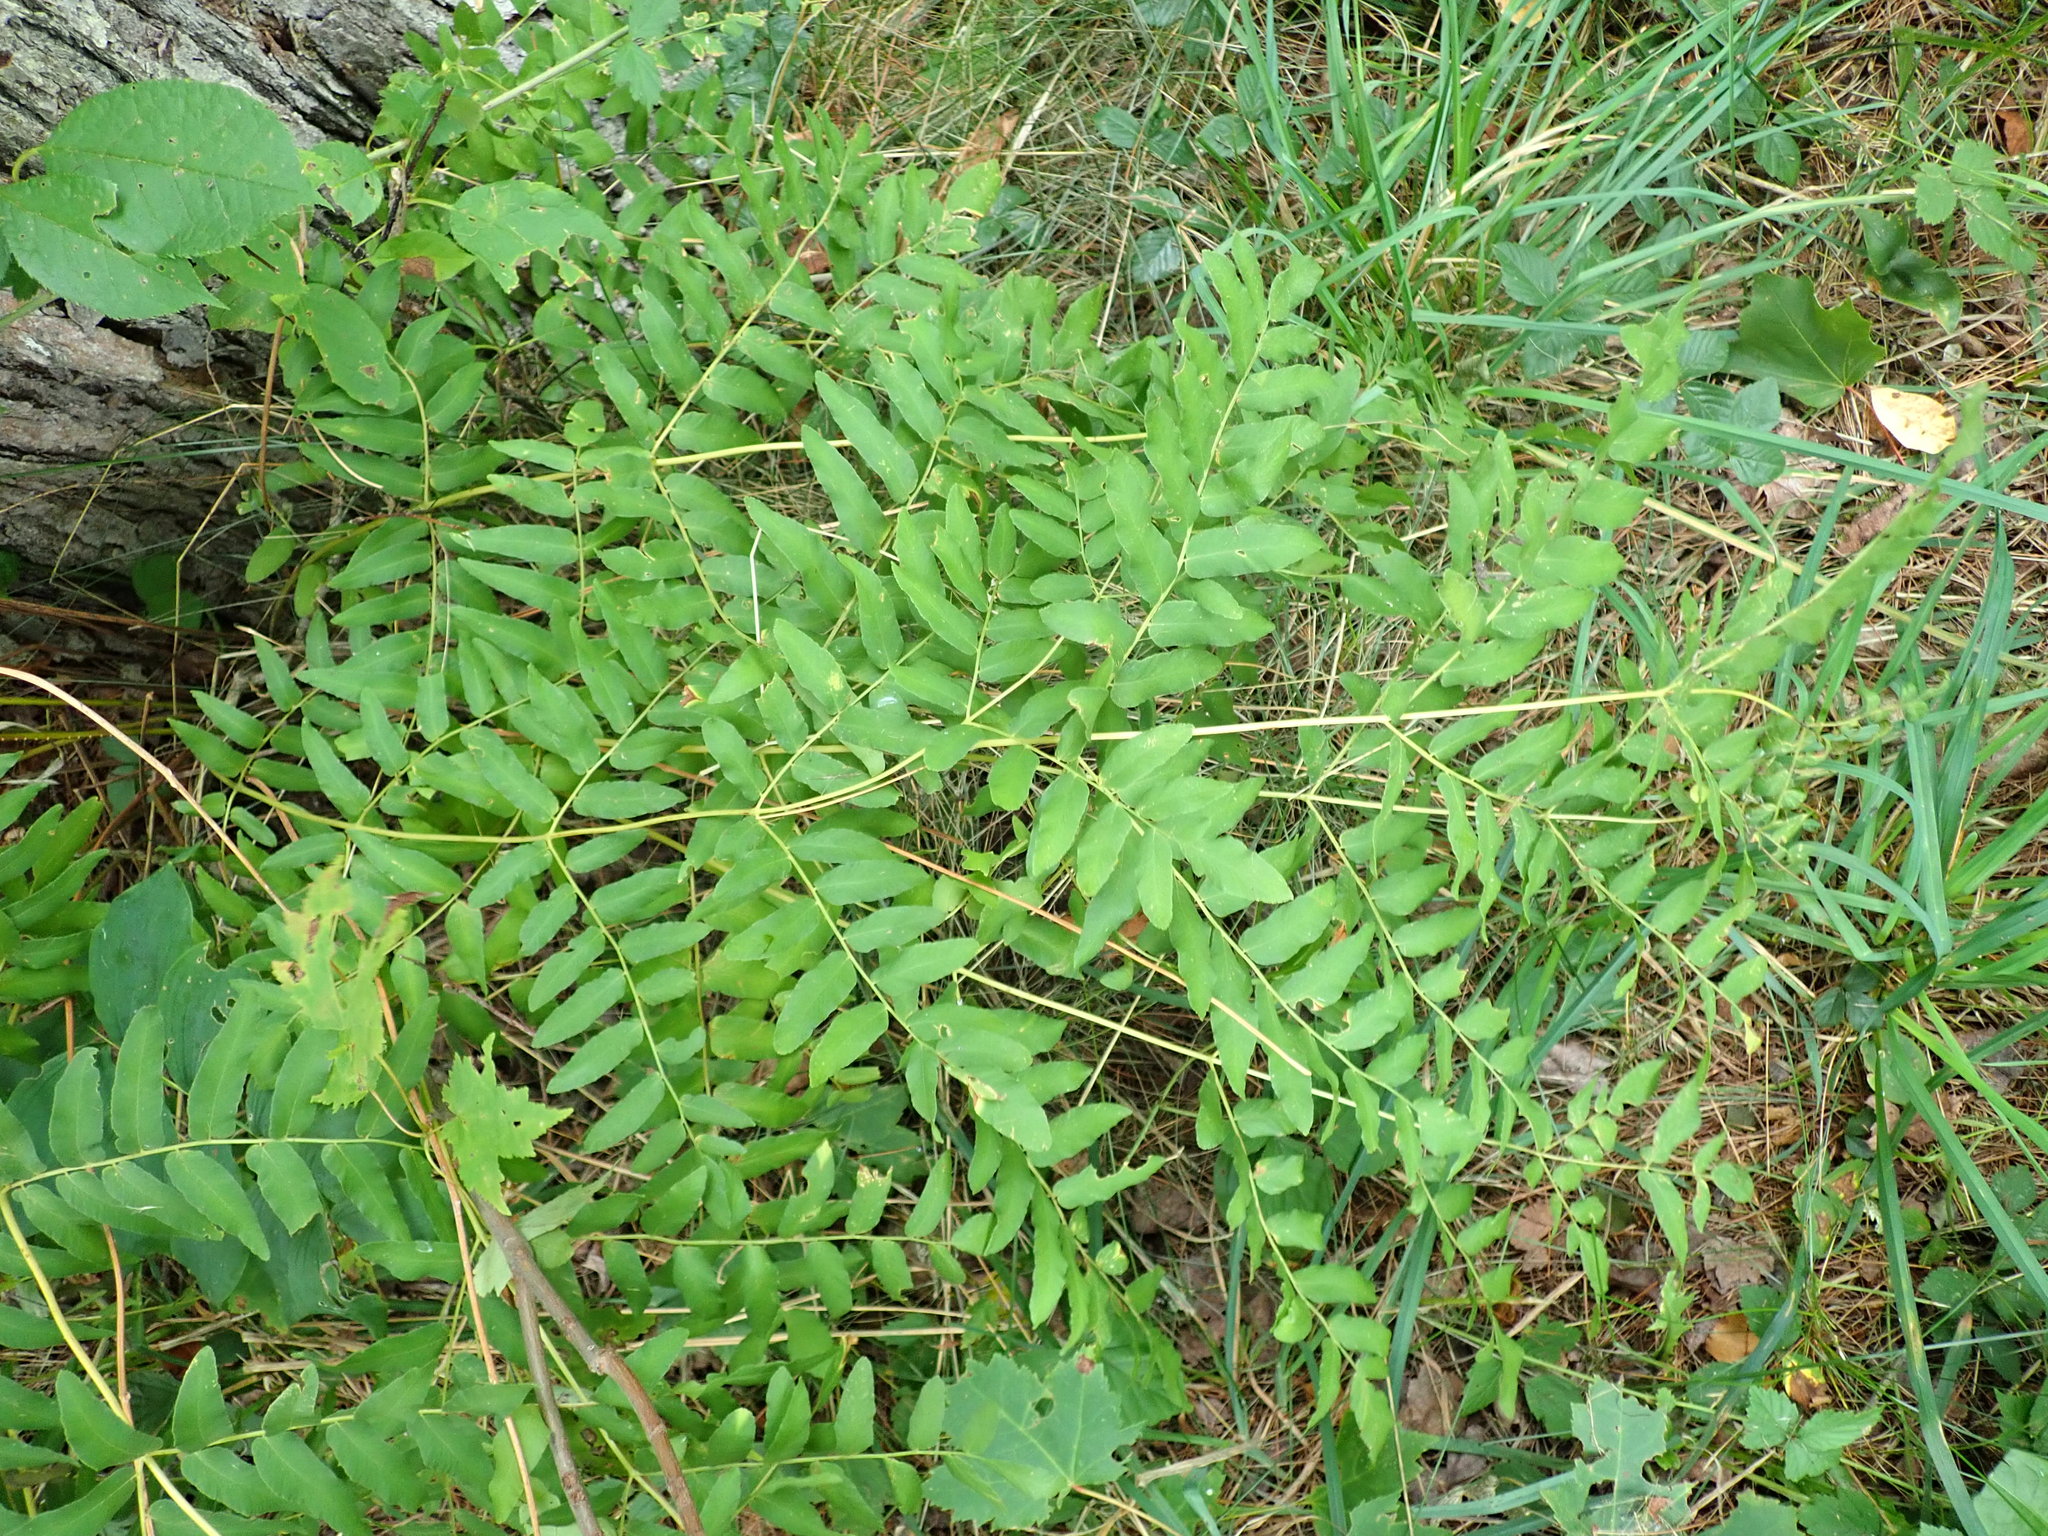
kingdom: Plantae
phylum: Tracheophyta
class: Polypodiopsida
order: Osmundales
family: Osmundaceae
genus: Osmunda
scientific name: Osmunda spectabilis
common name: American royal fern
